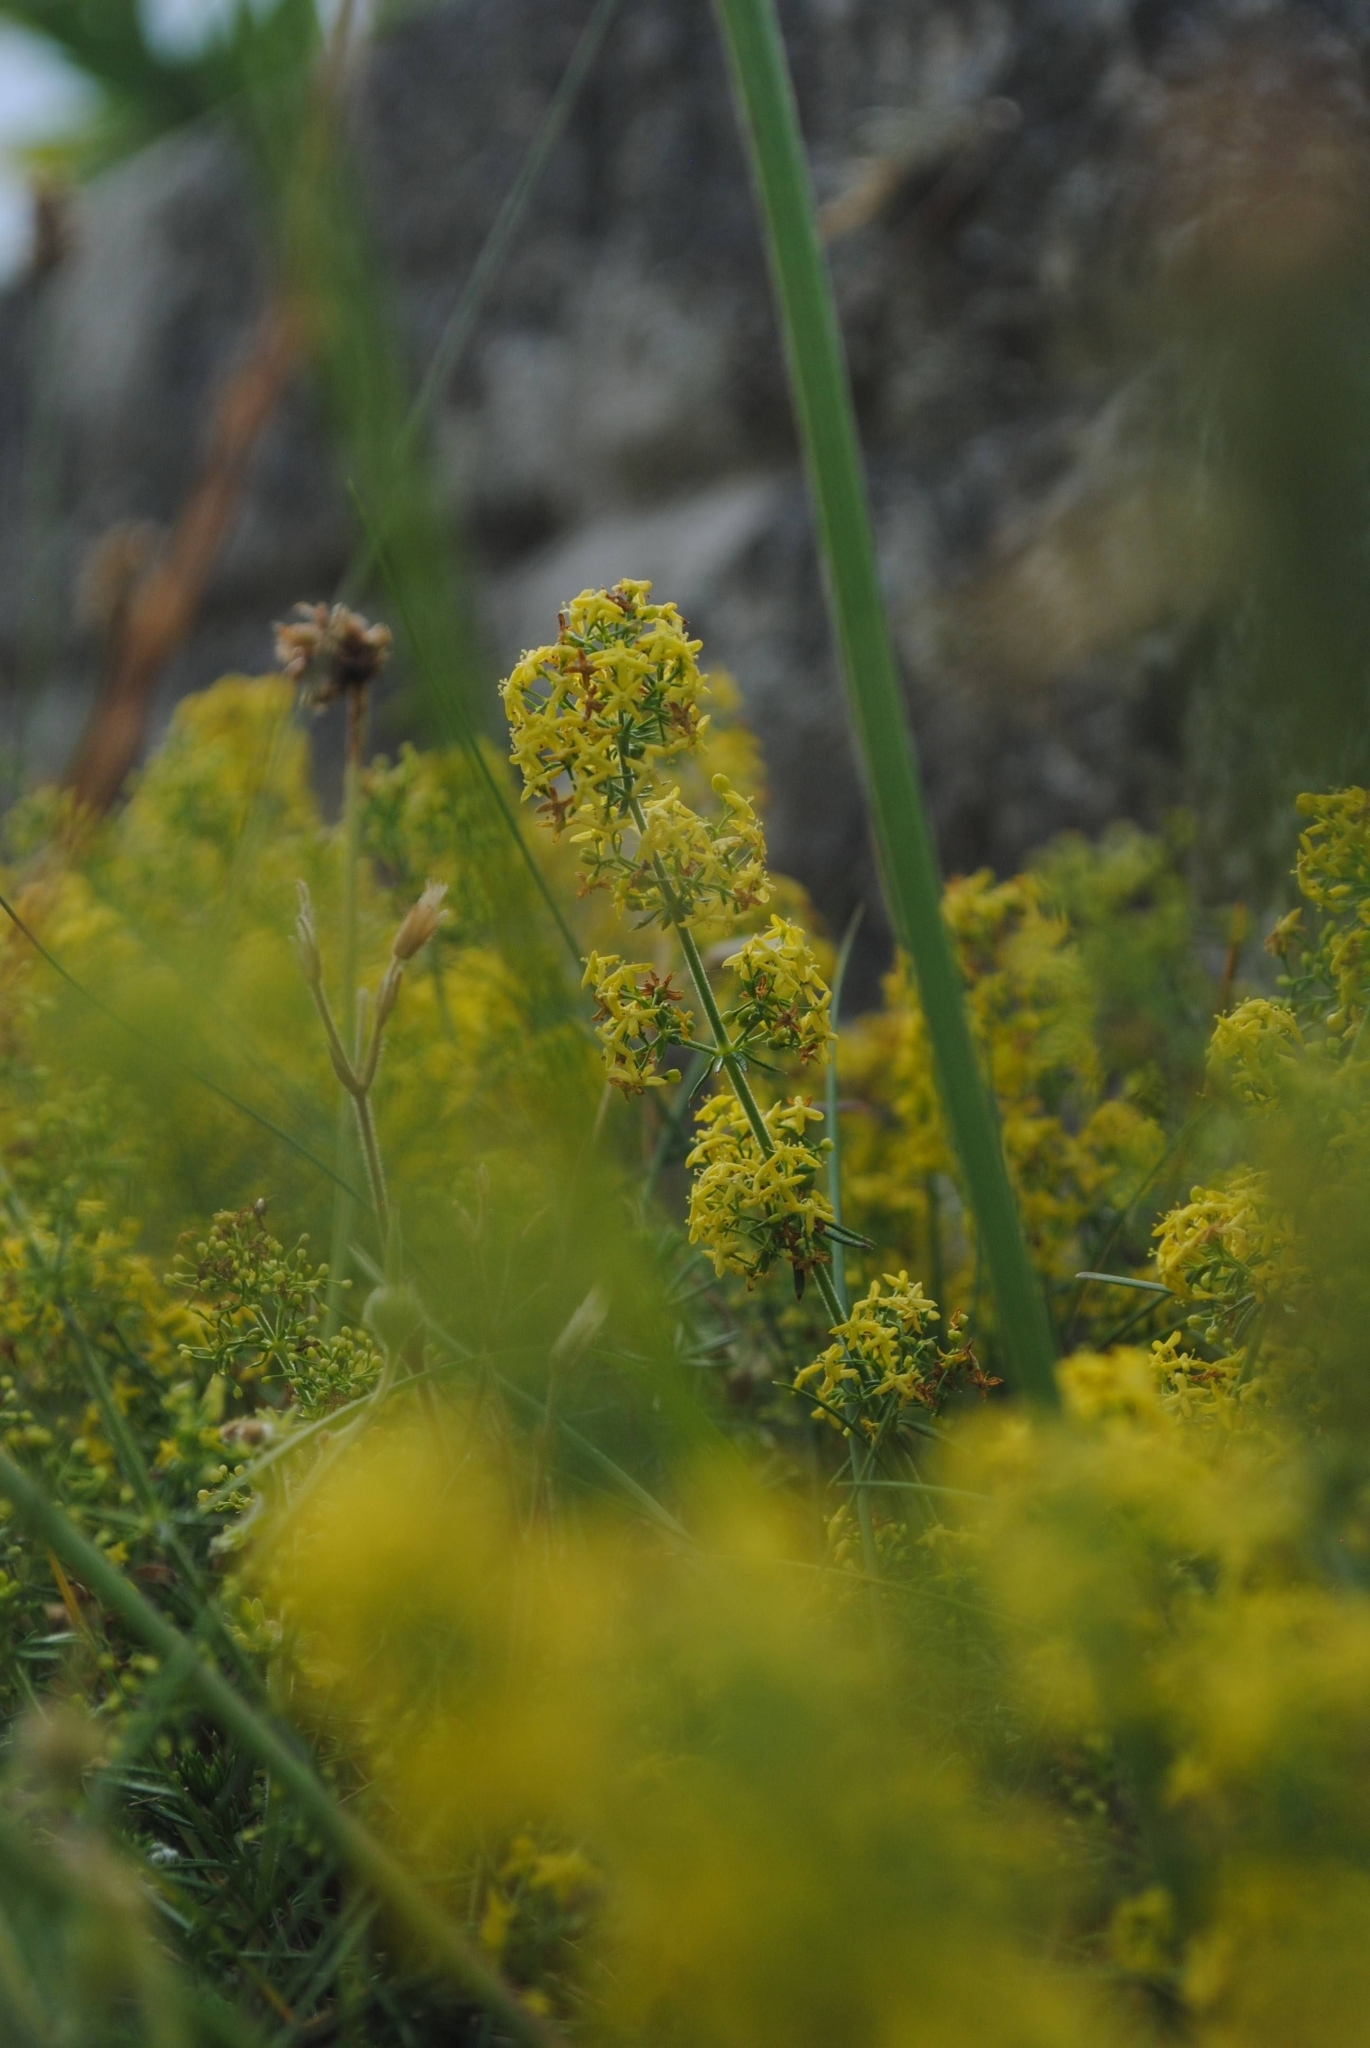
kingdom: Plantae
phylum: Tracheophyta
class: Magnoliopsida
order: Gentianales
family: Rubiaceae
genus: Galium
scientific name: Galium verum
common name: Lady's bedstraw
